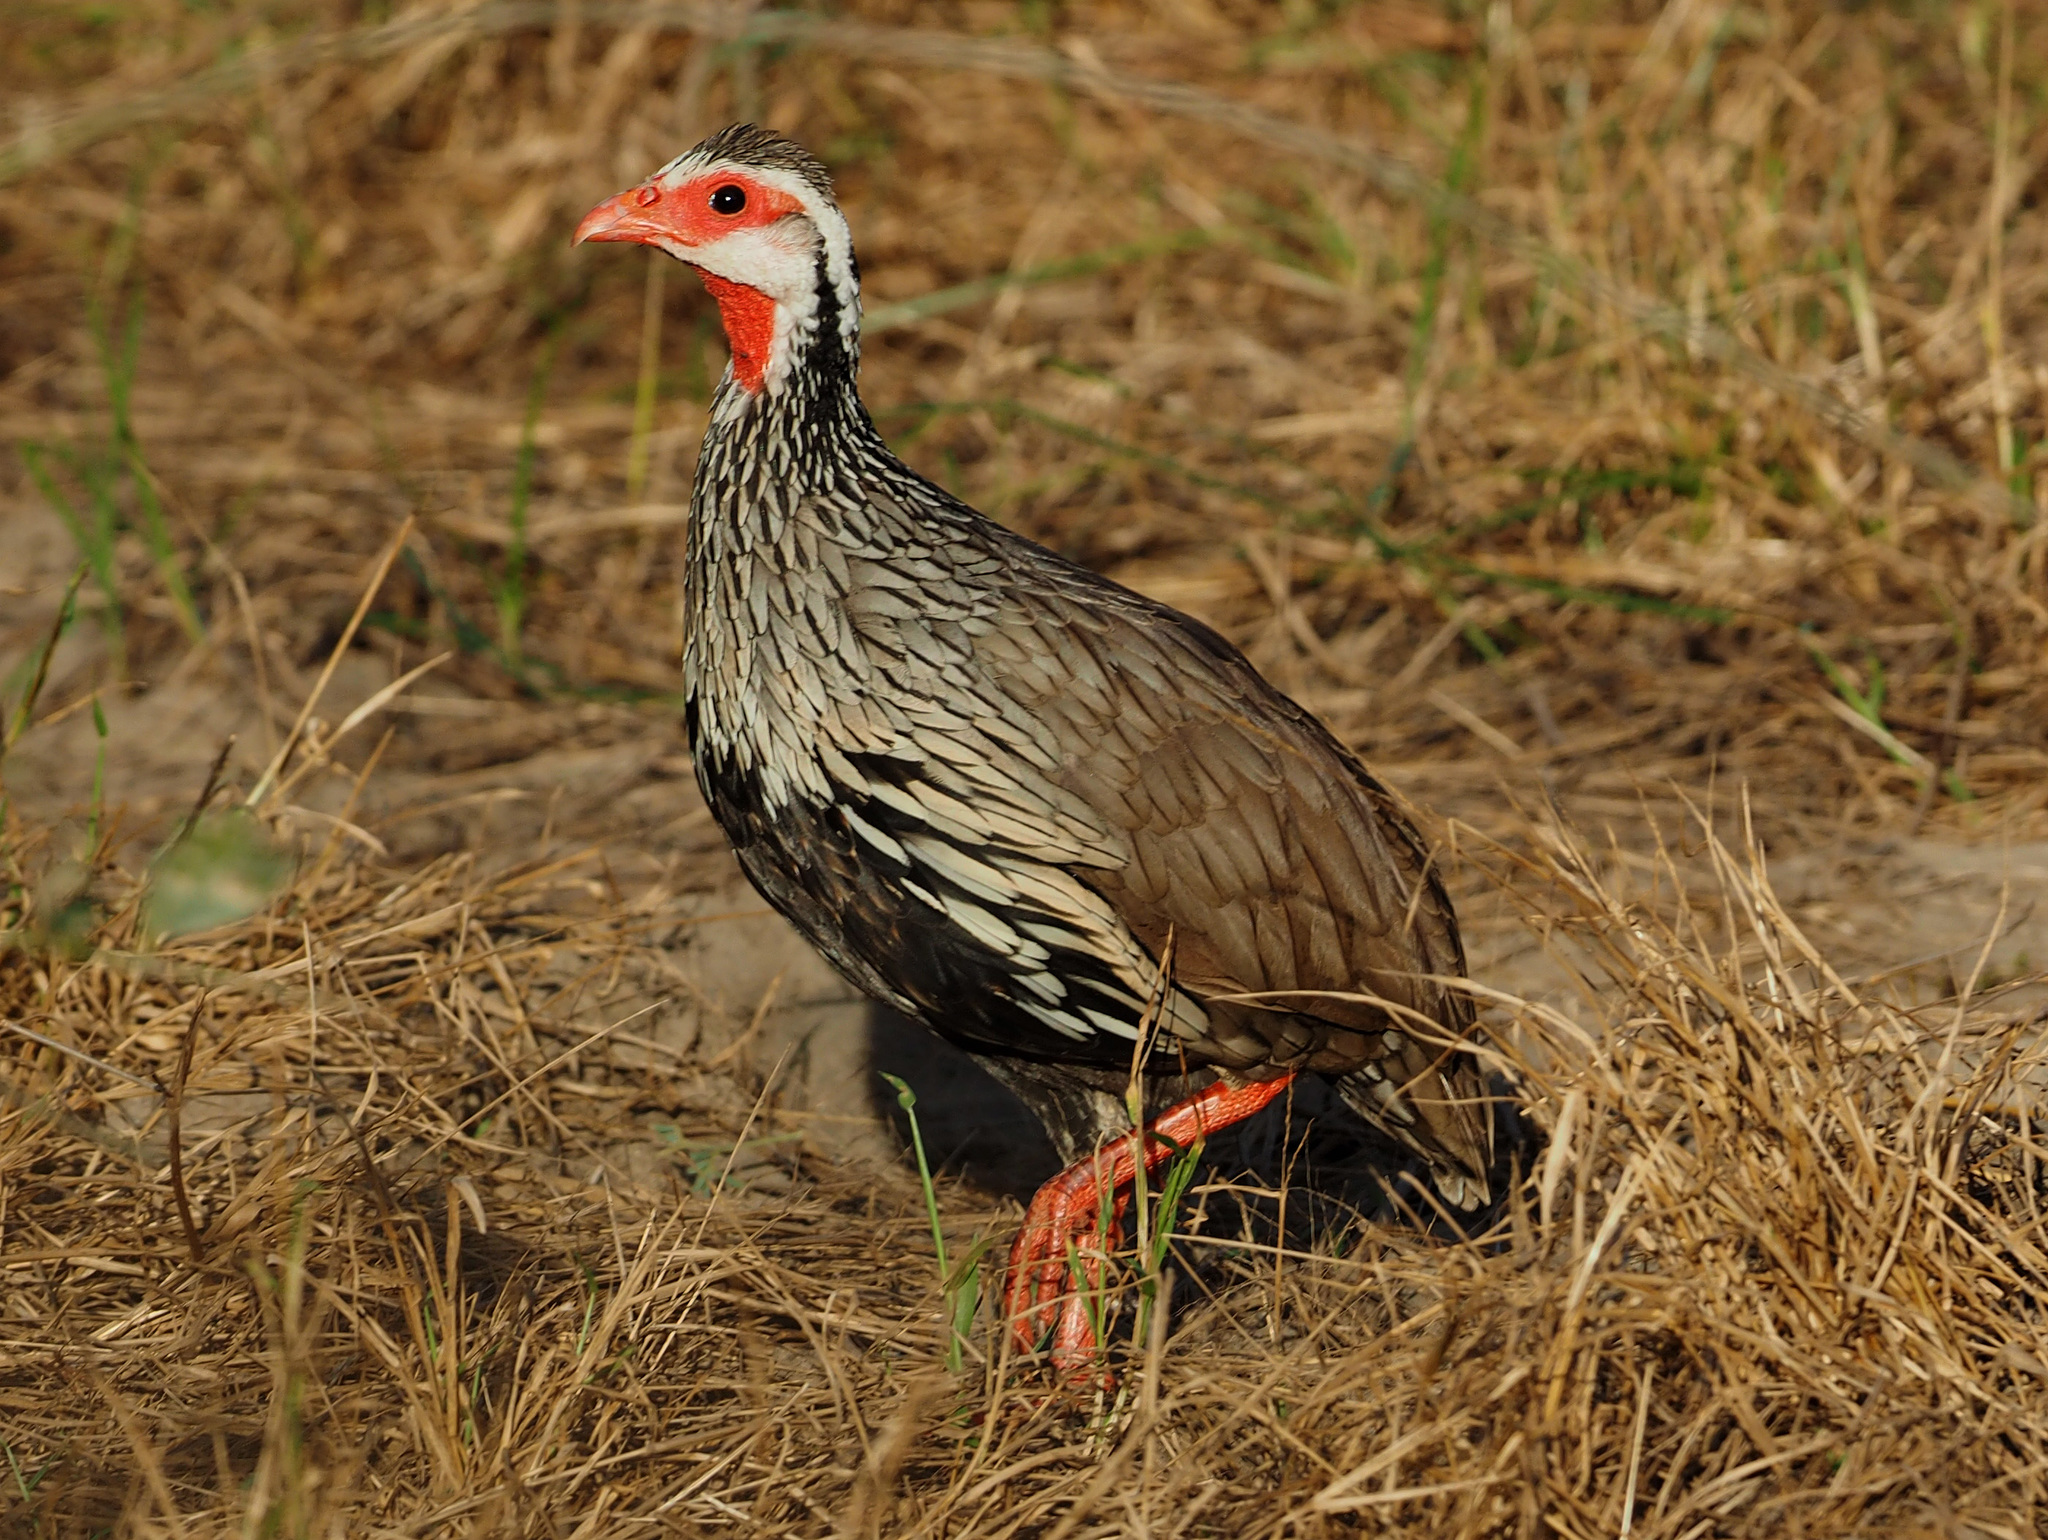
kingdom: Animalia
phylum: Chordata
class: Aves
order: Galliformes
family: Phasianidae
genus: Pternistis
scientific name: Pternistis afer
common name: Red-necked spurfowl
